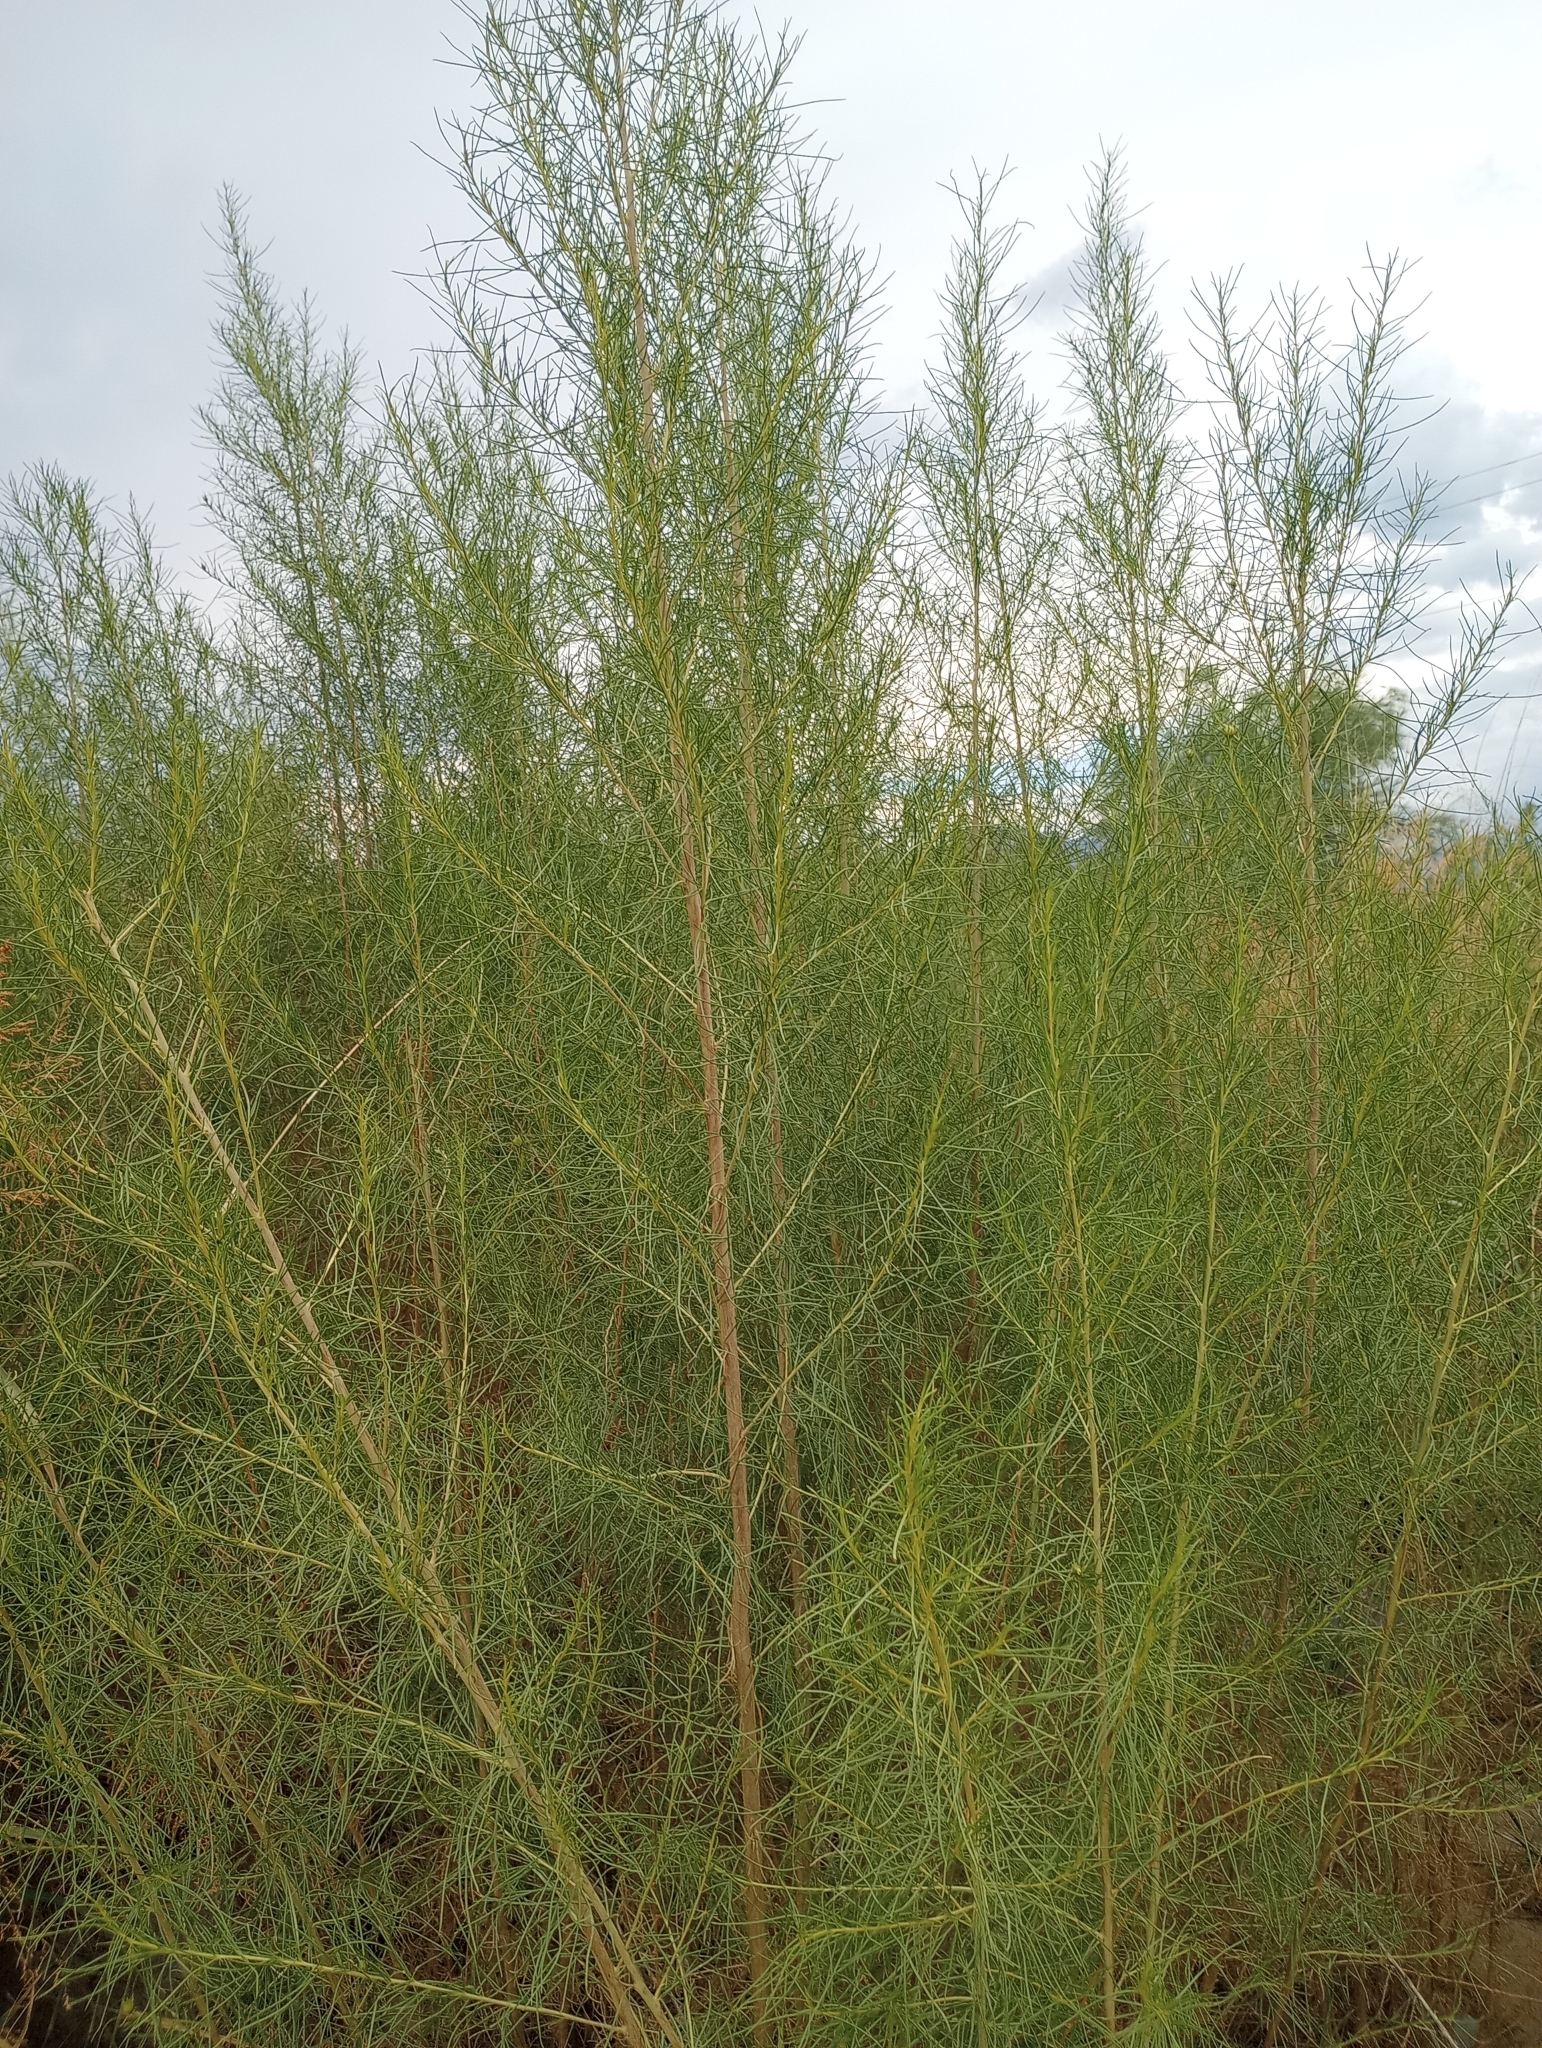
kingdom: Plantae
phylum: Tracheophyta
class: Magnoliopsida
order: Asterales
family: Asteraceae
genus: Artemisia
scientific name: Artemisia dracunculus
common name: Tarragon
